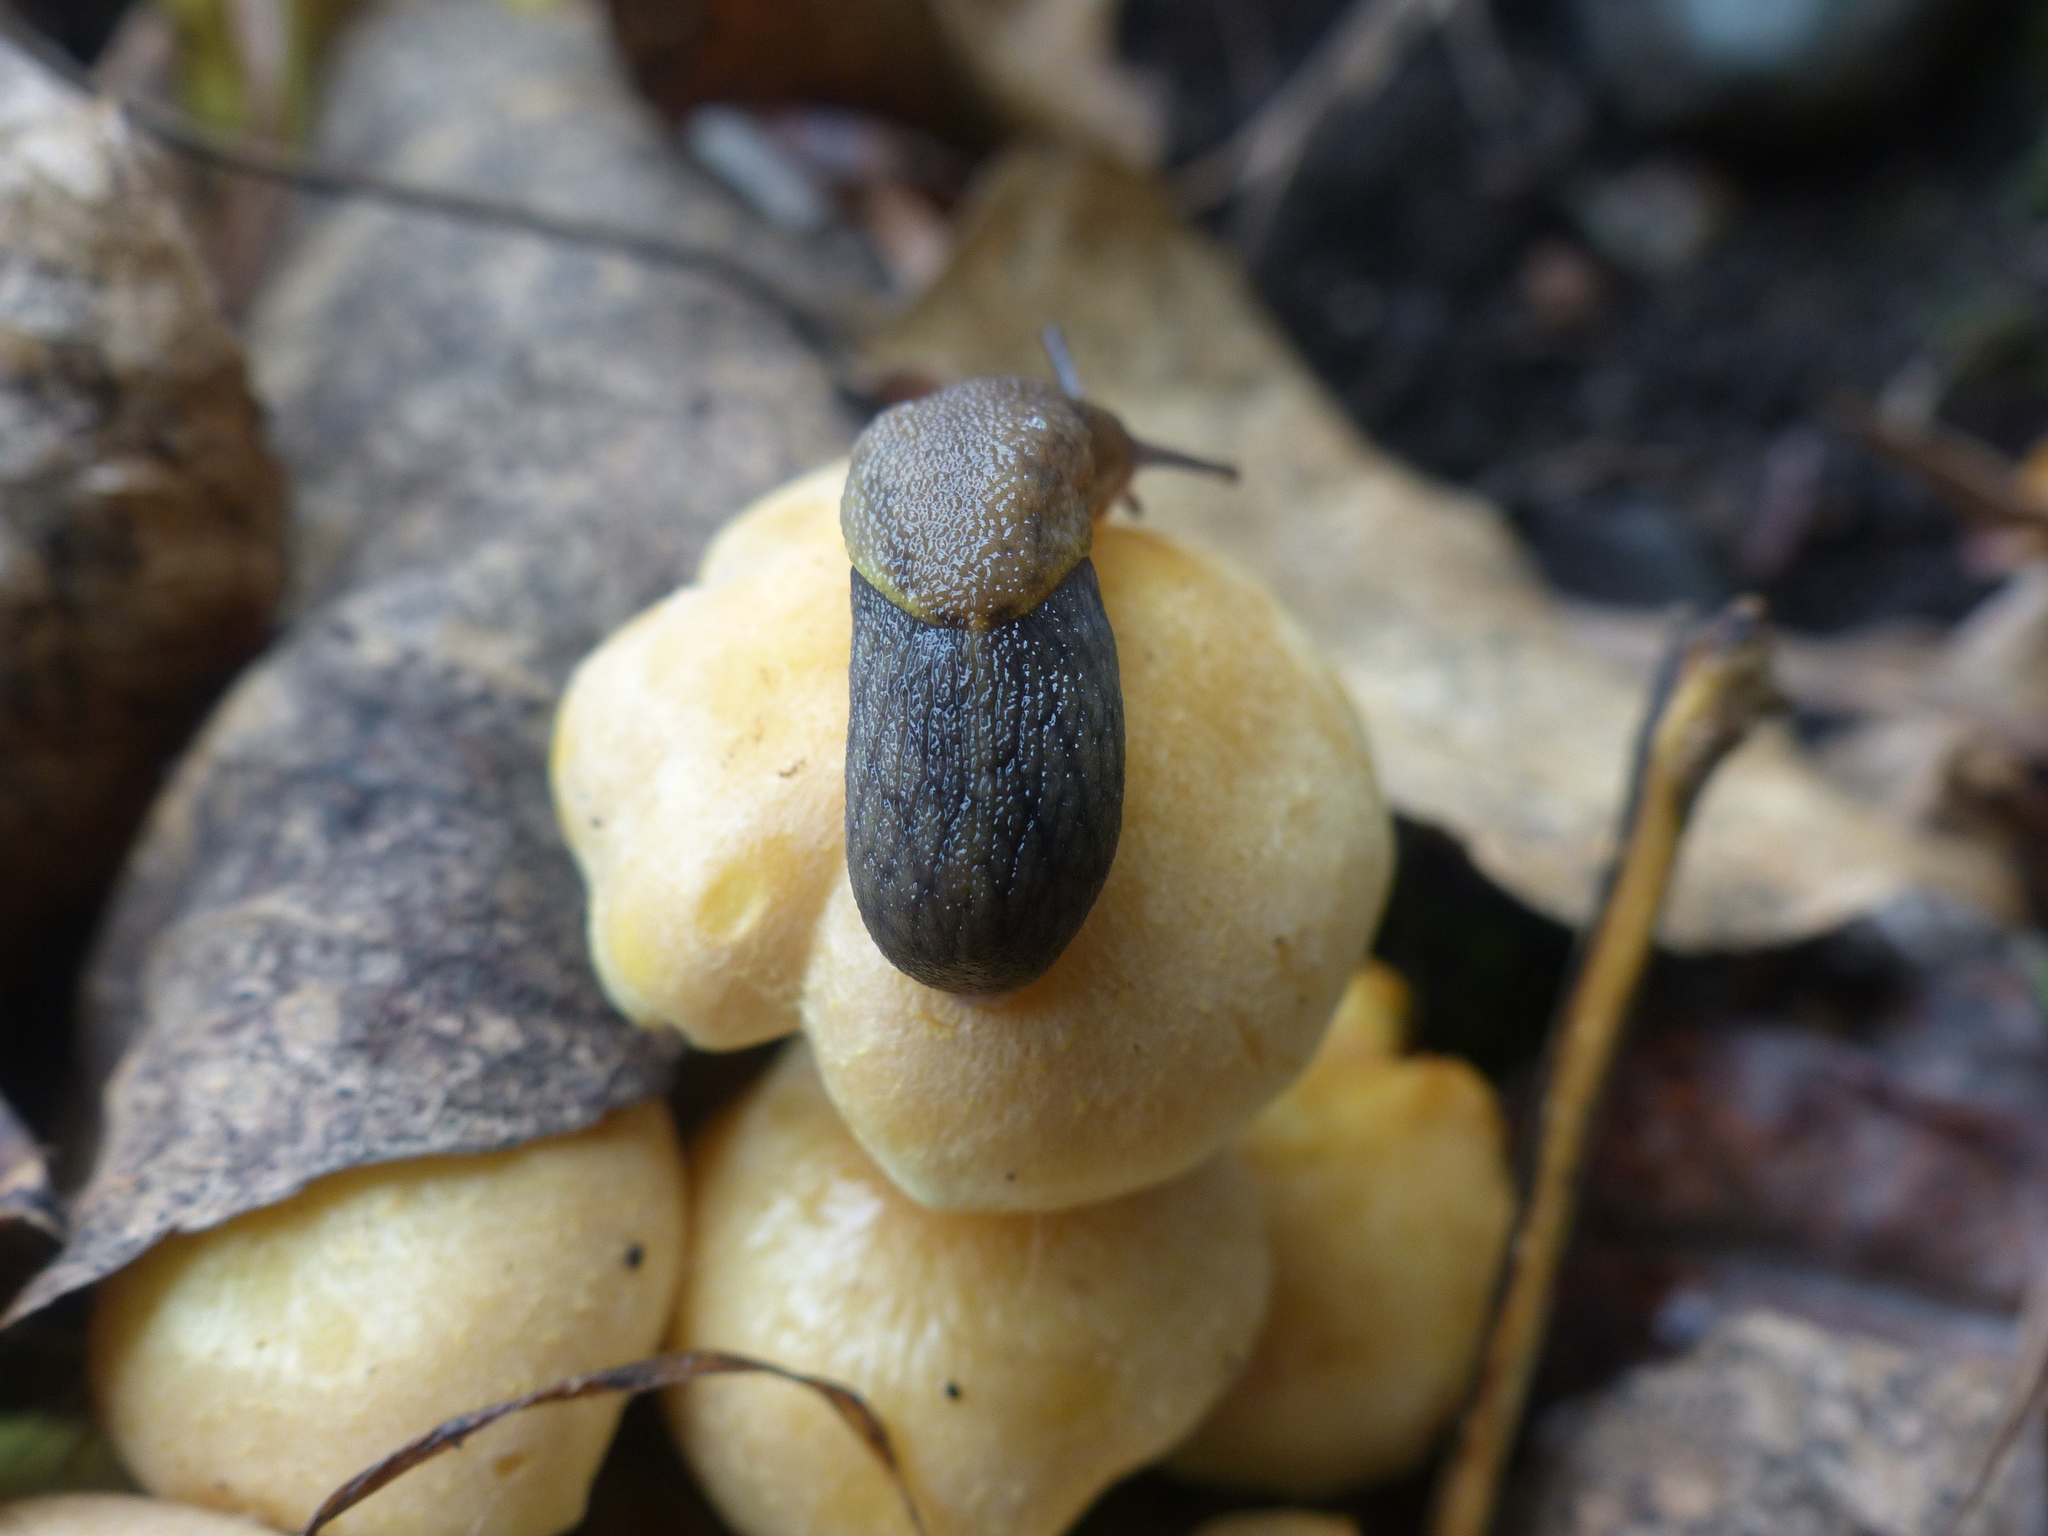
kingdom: Animalia
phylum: Mollusca
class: Gastropoda
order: Stylommatophora
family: Ariolimacidae
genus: Prophysaon
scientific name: Prophysaon foliolatum
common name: Yellow-bordered taildropper
